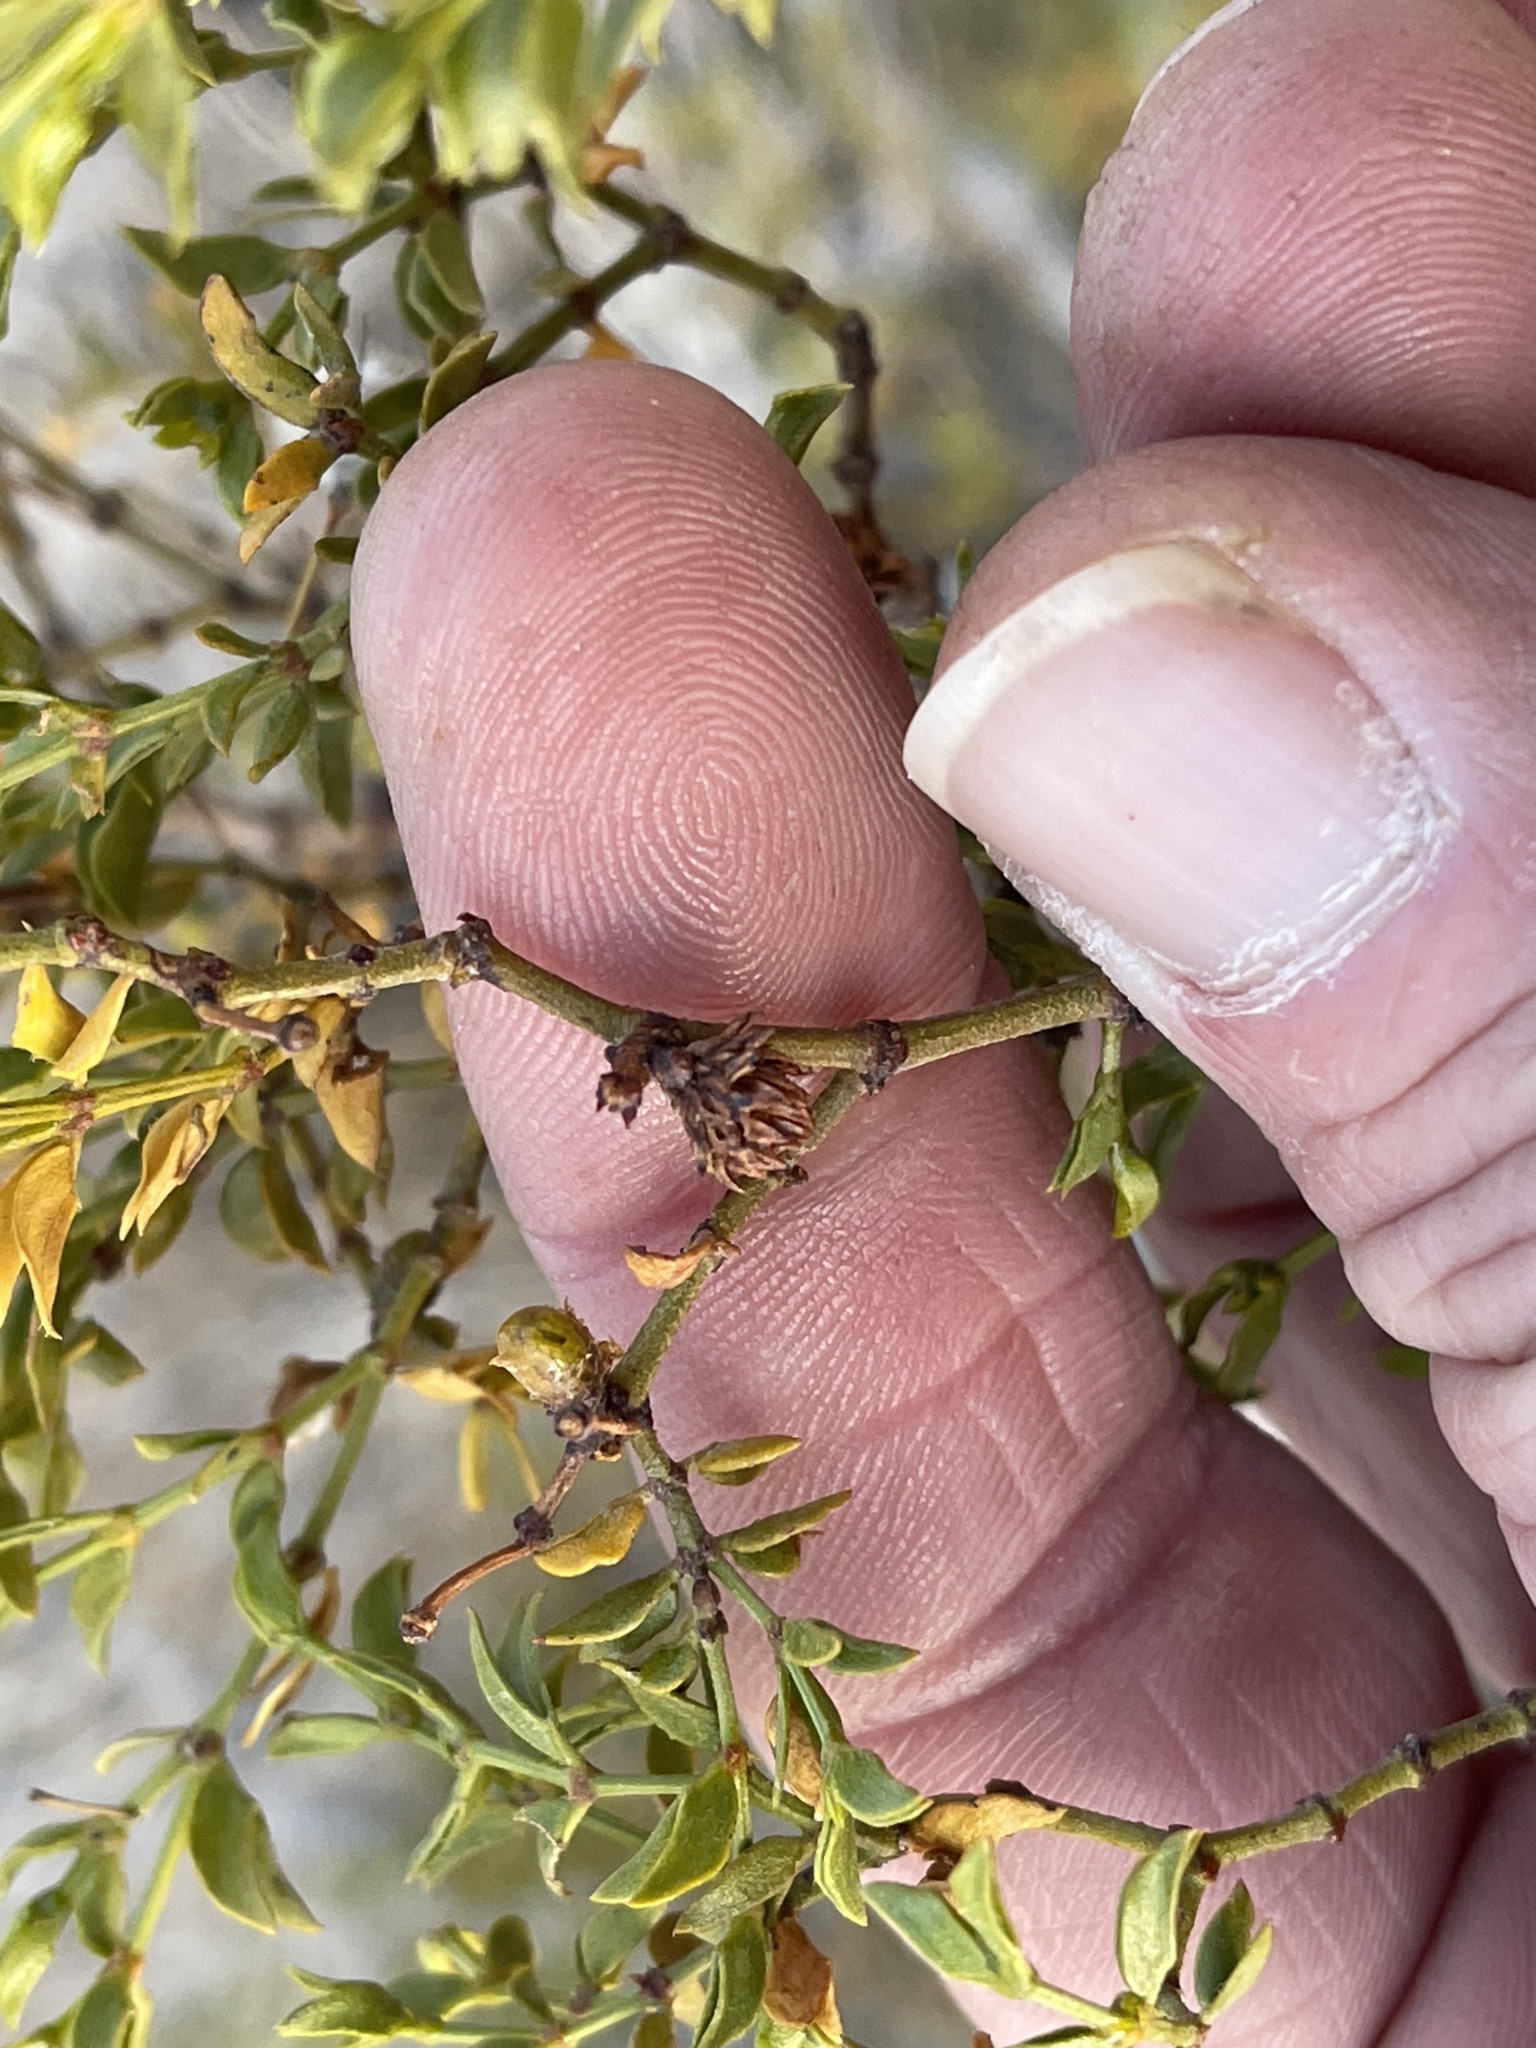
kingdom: Animalia
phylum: Arthropoda
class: Insecta
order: Diptera
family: Cecidomyiidae
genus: Asphondylia
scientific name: Asphondylia rosetta
